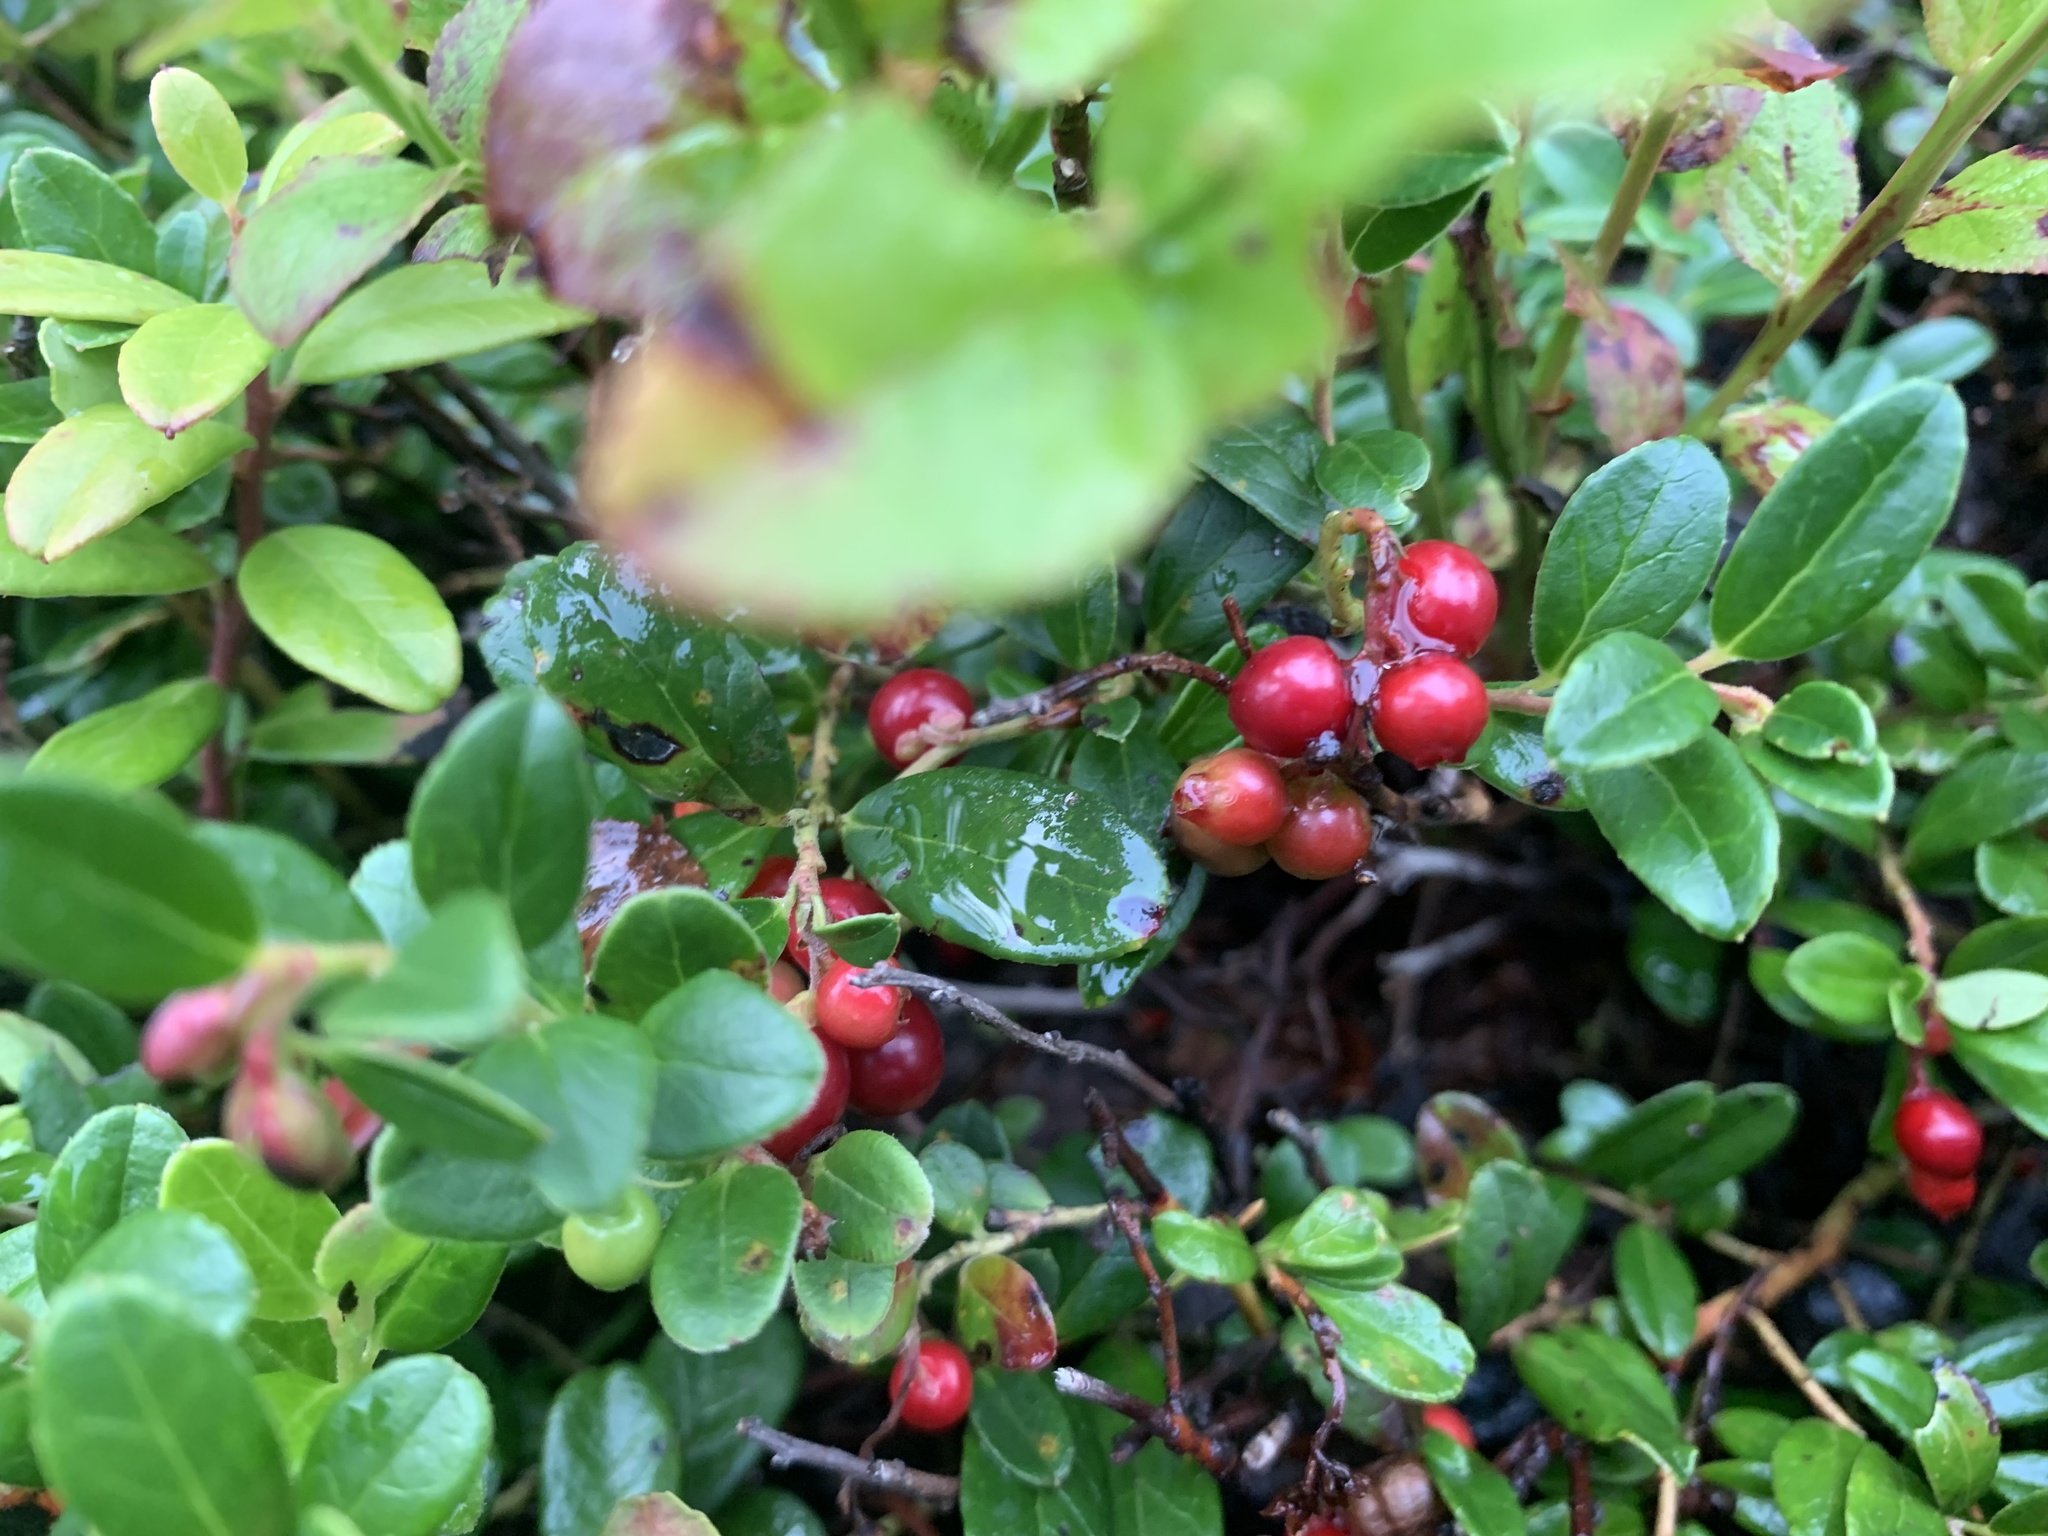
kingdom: Plantae
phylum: Tracheophyta
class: Magnoliopsida
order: Ericales
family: Ericaceae
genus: Vaccinium
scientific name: Vaccinium vitis-idaea
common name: Cowberry
